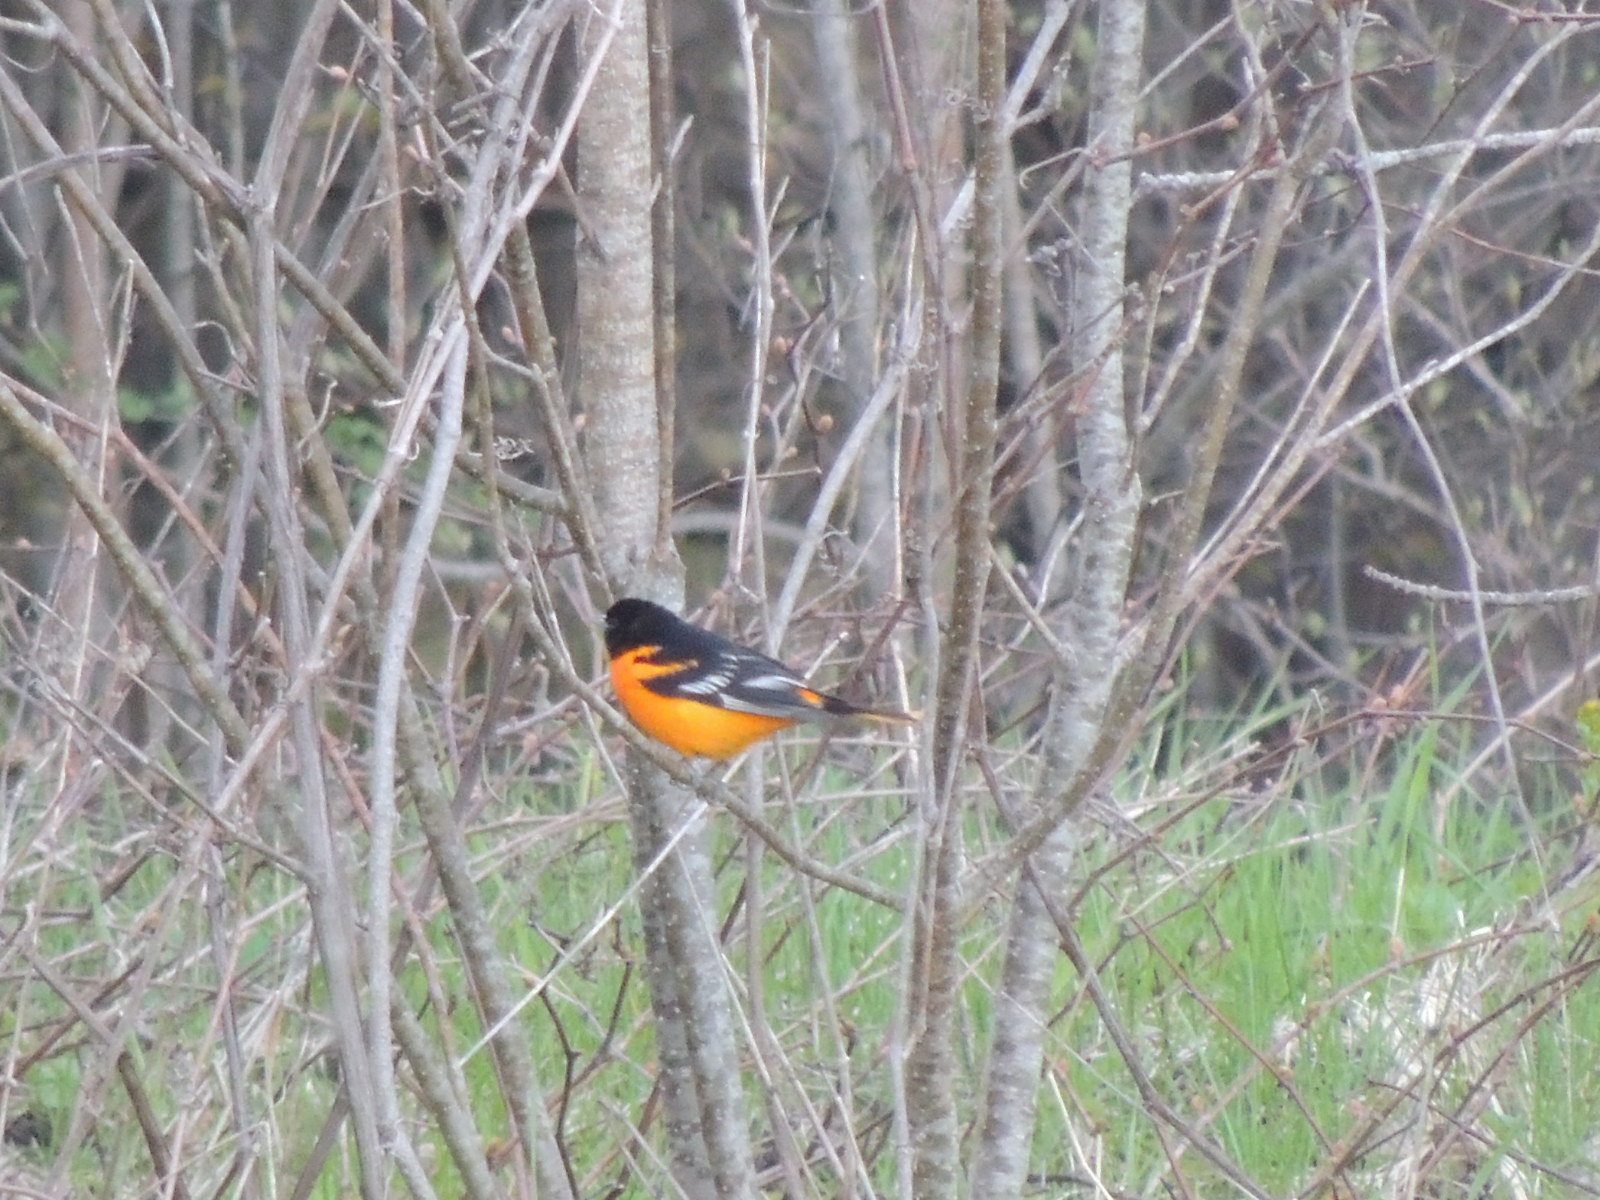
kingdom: Animalia
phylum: Chordata
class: Aves
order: Passeriformes
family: Icteridae
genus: Icterus
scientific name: Icterus galbula
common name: Baltimore oriole
